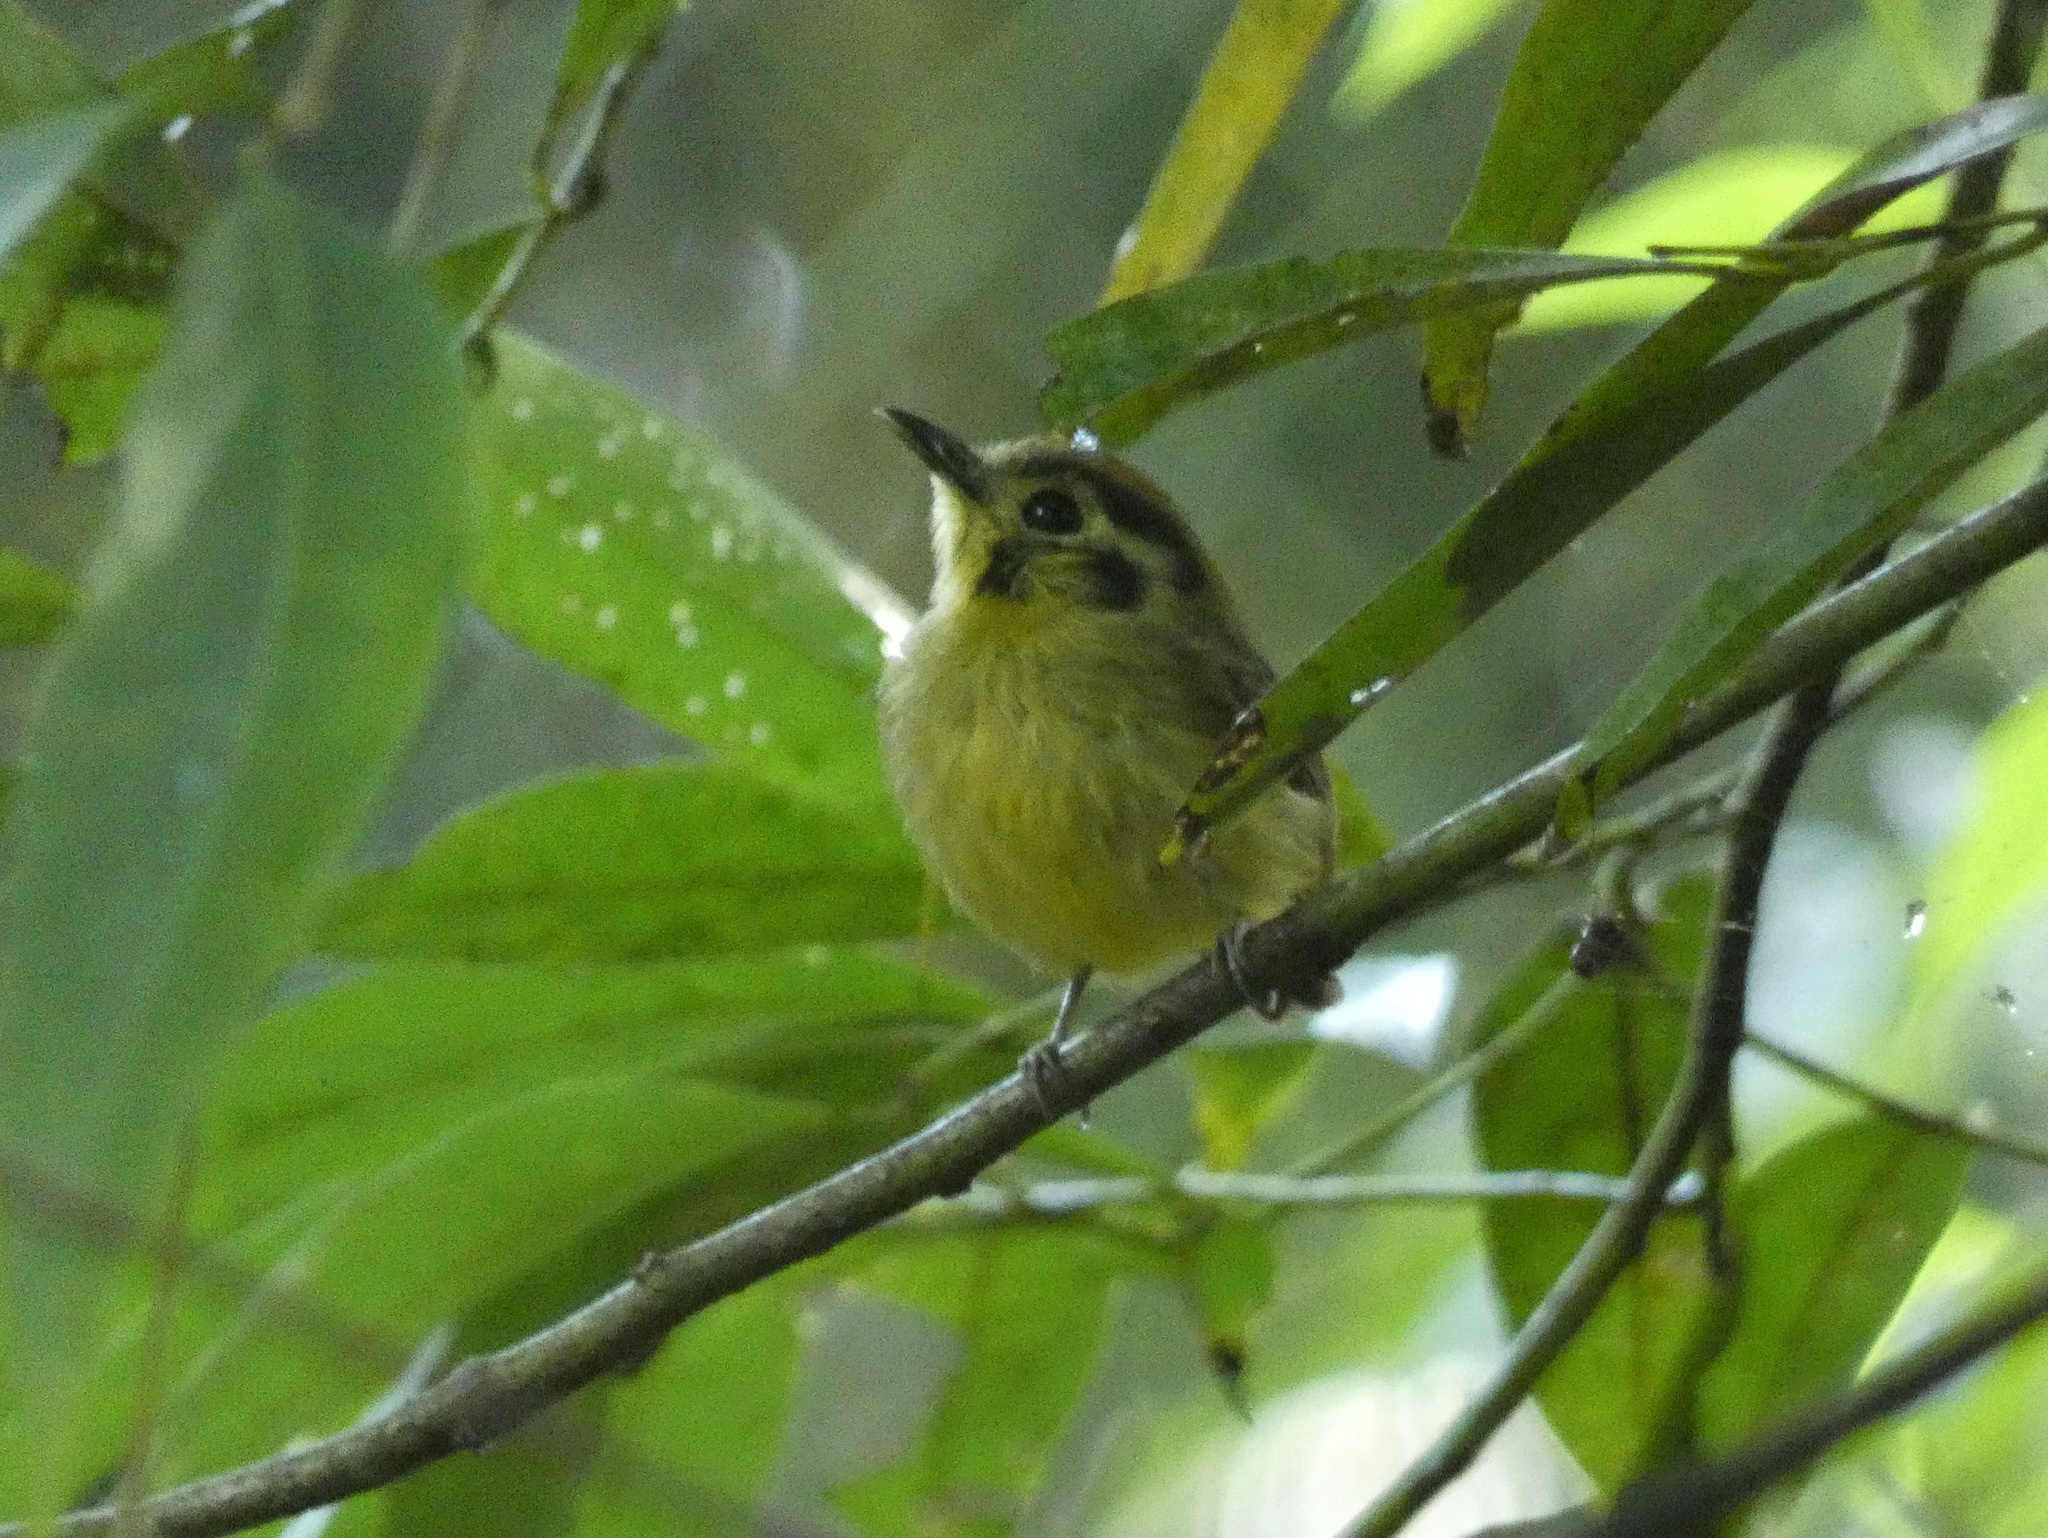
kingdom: Animalia
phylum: Chordata
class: Aves
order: Passeriformes
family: Tyrannidae
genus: Platyrinchus
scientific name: Platyrinchus coronatus
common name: Golden-crowned spadebill
